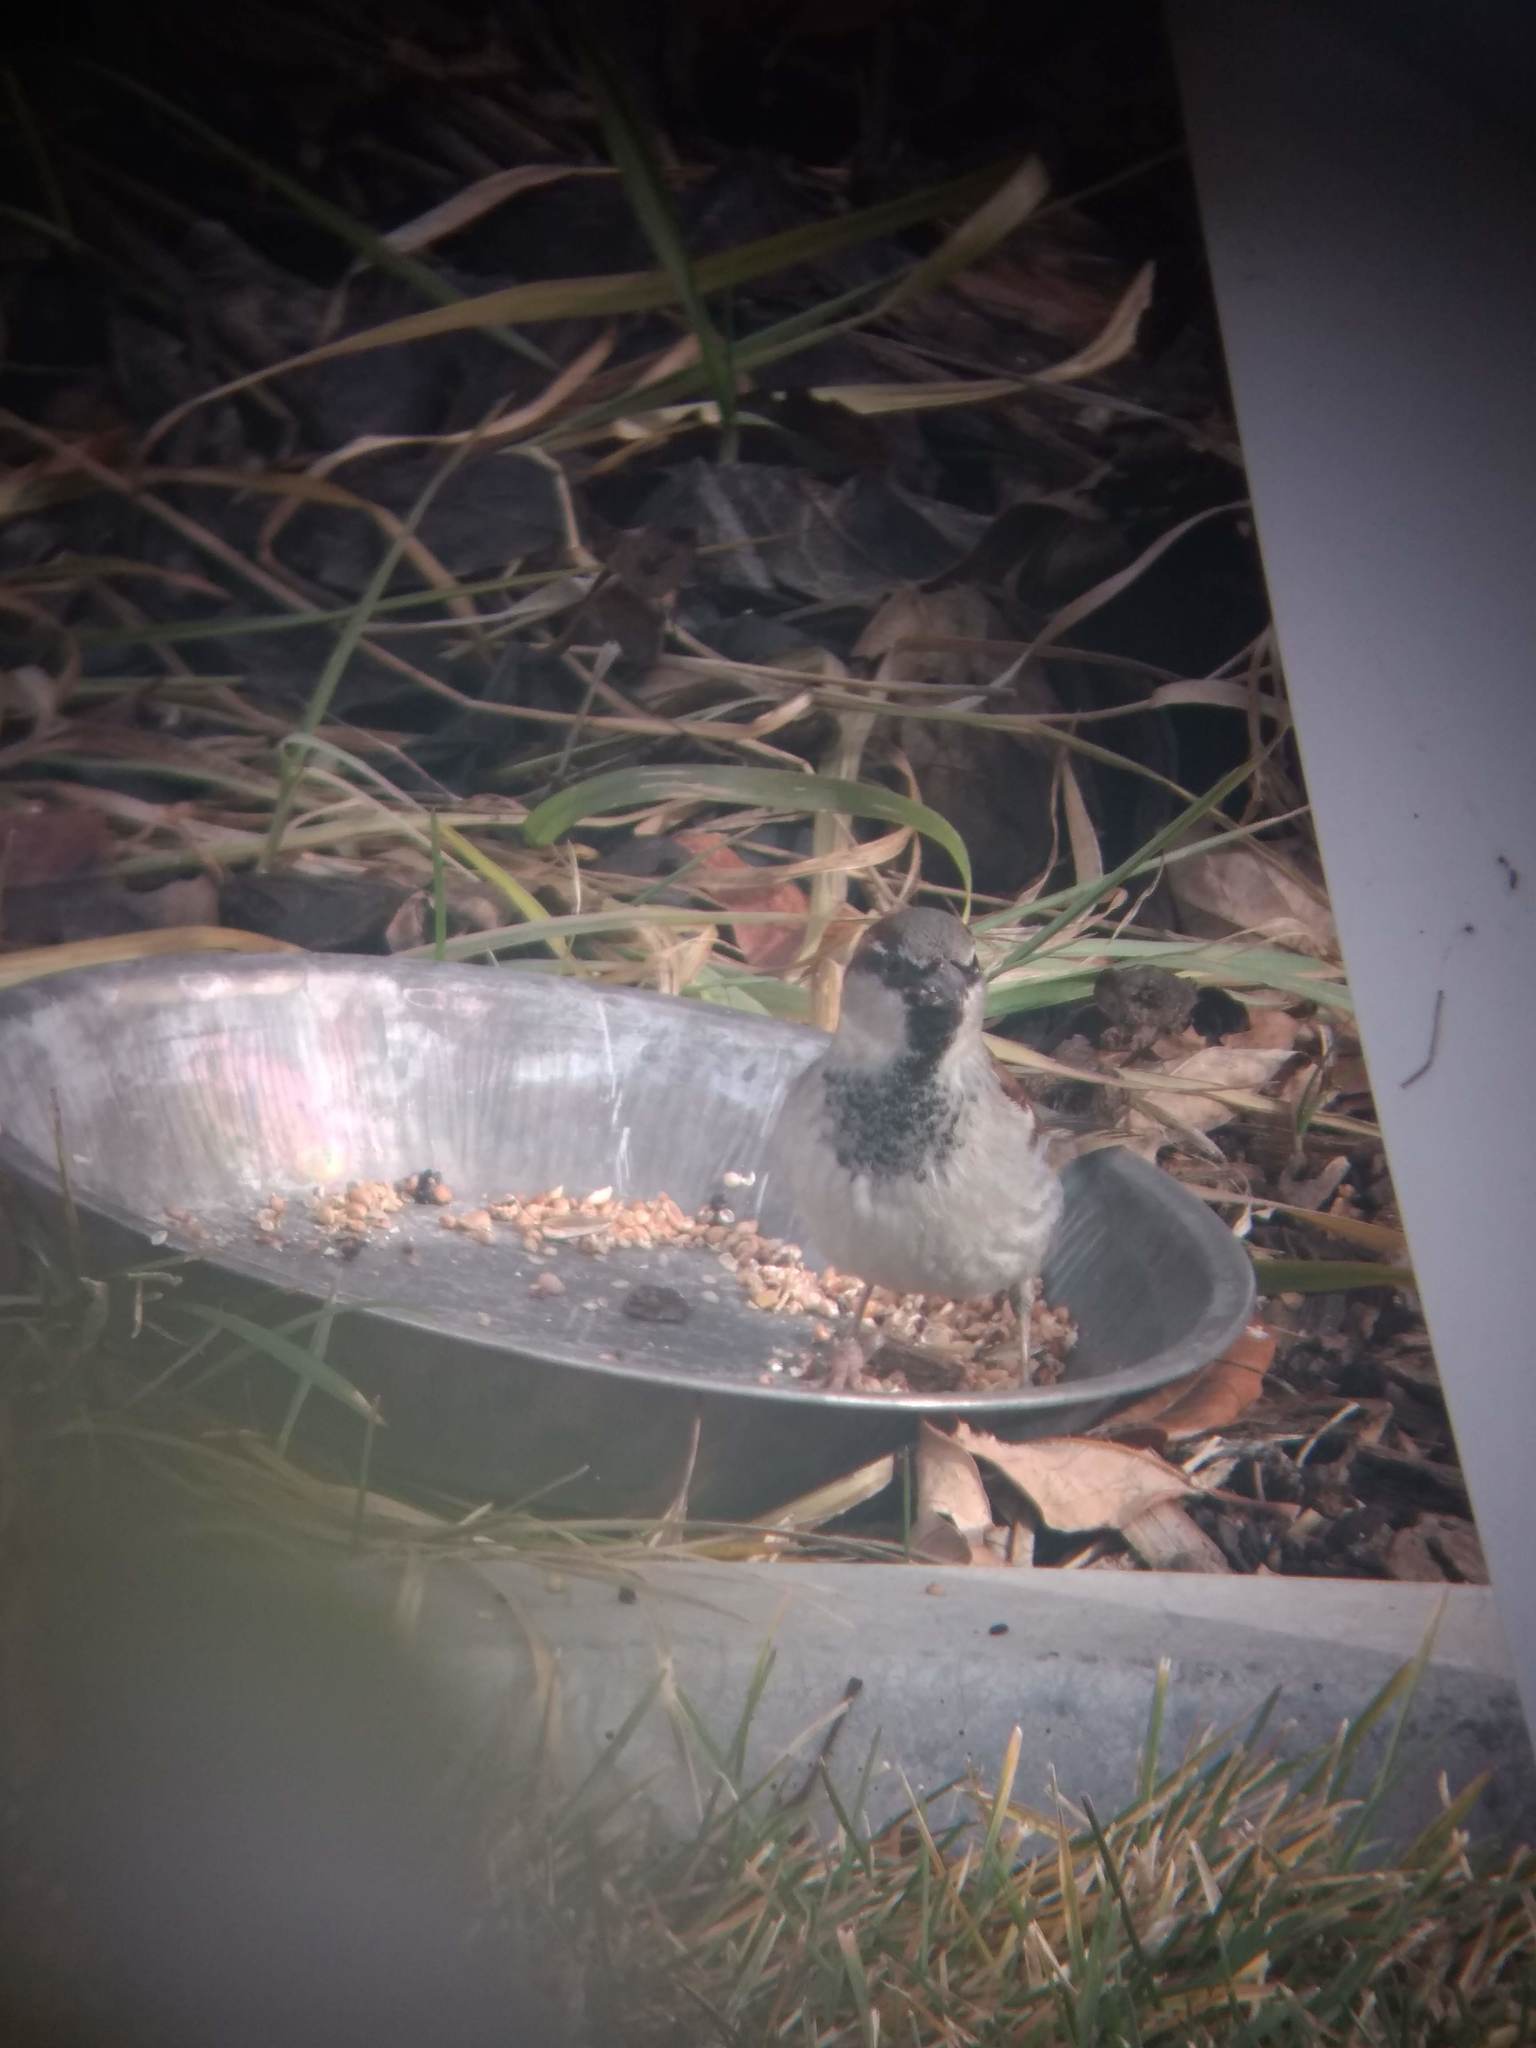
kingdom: Animalia
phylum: Chordata
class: Aves
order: Passeriformes
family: Passeridae
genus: Passer
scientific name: Passer domesticus
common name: House sparrow
